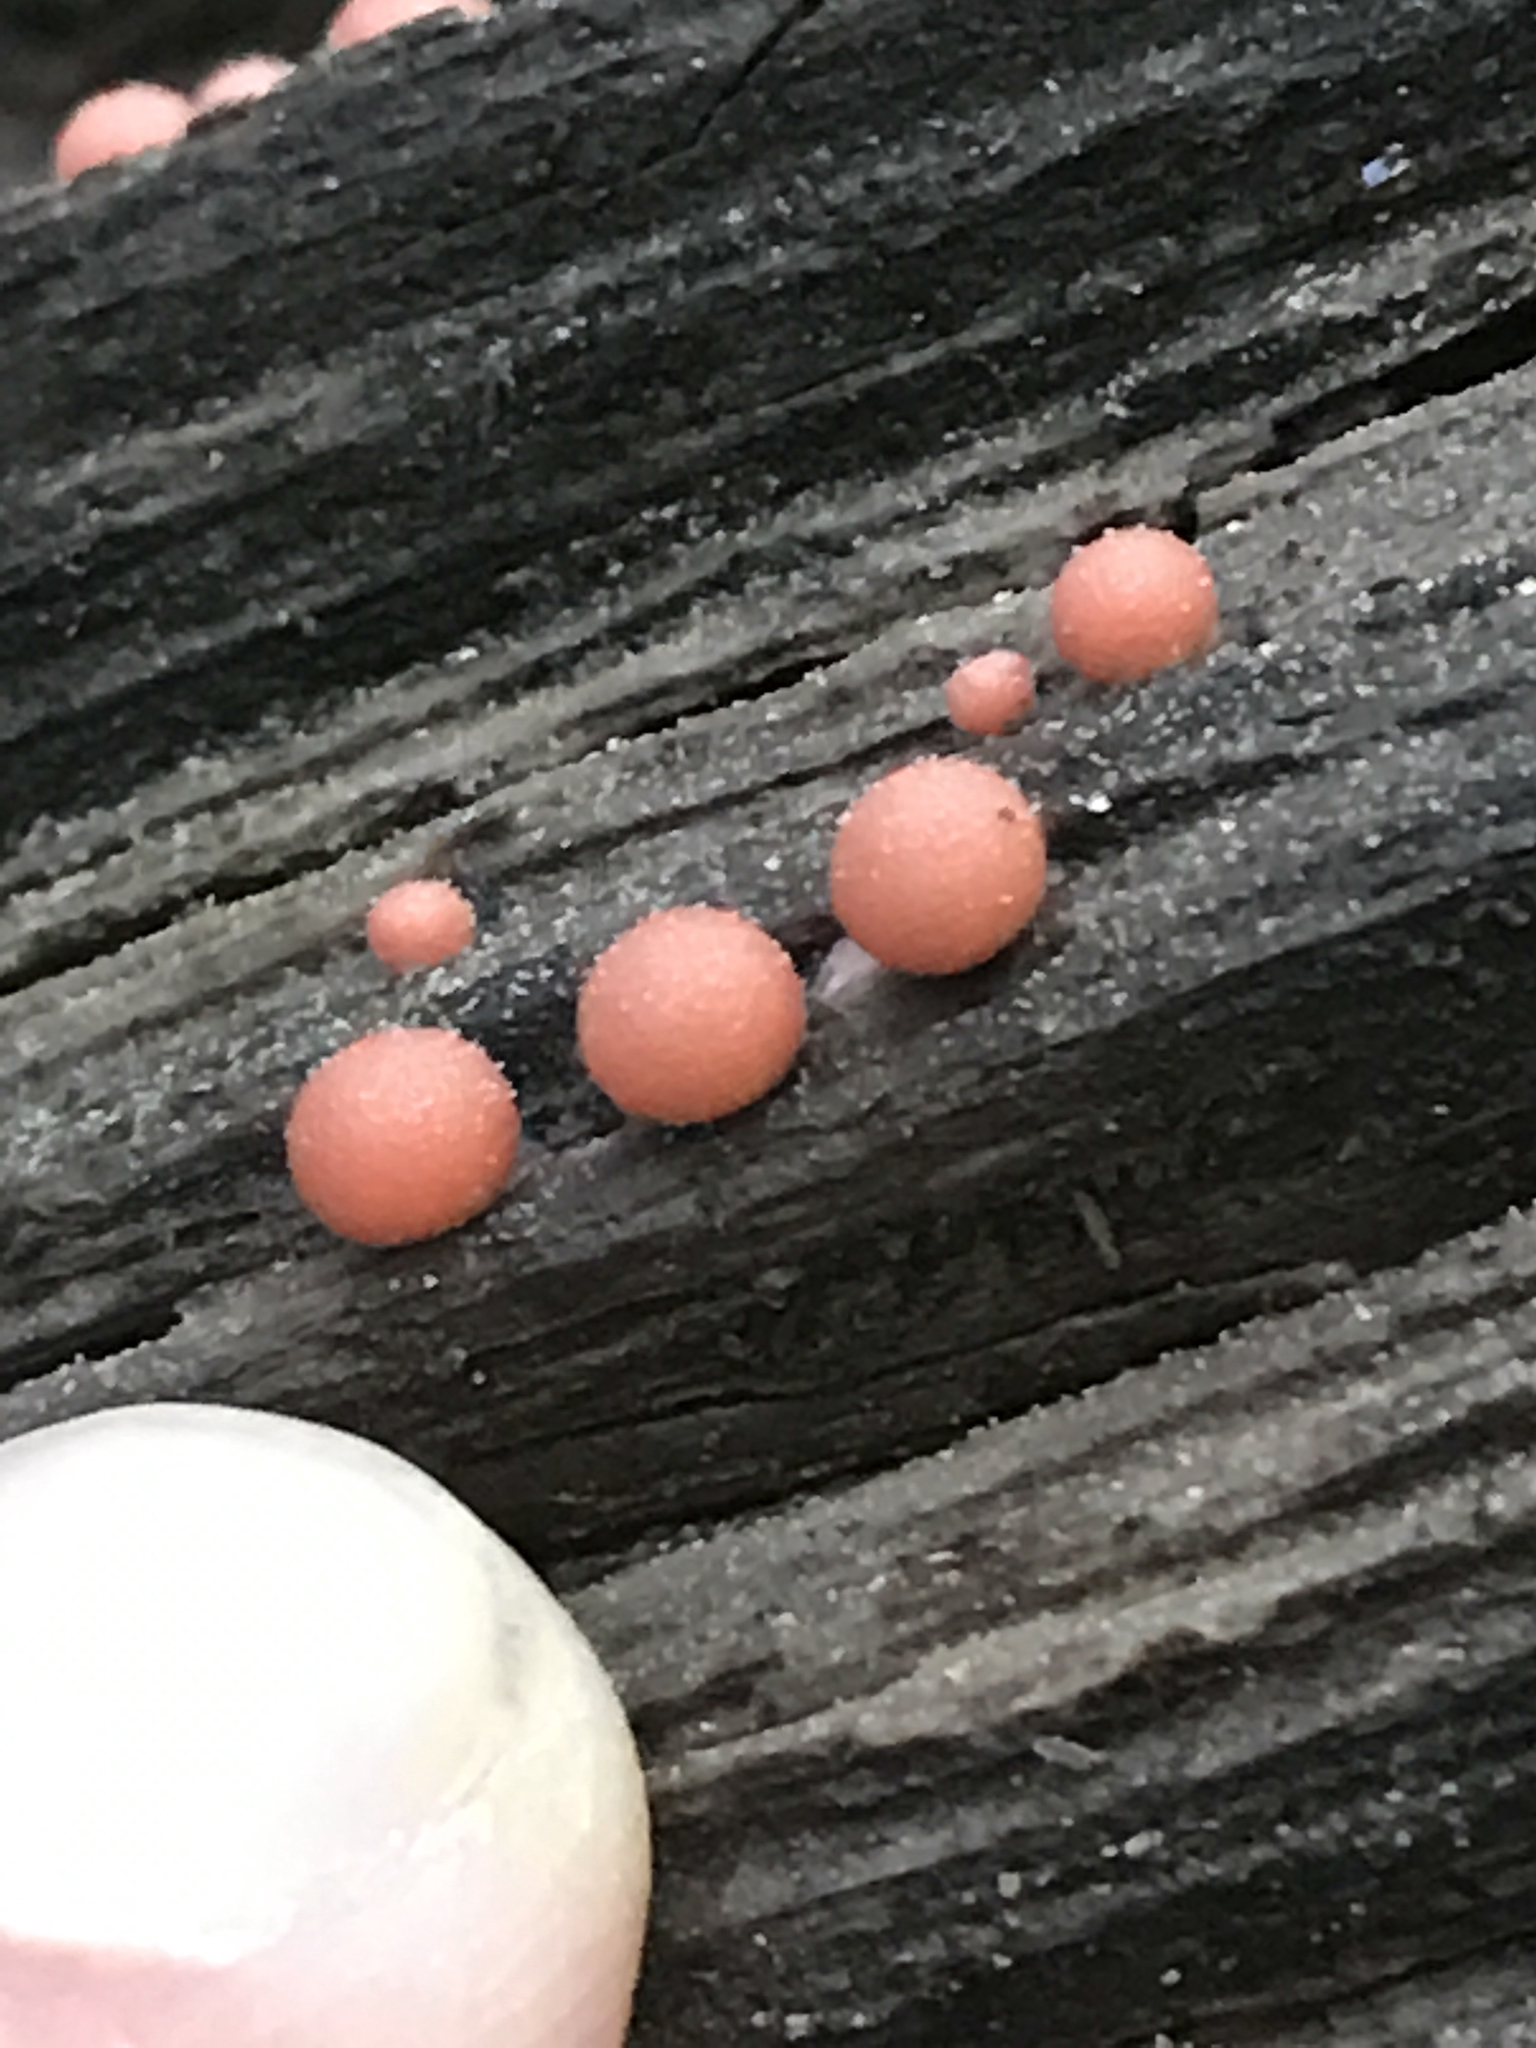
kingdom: Protozoa
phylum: Mycetozoa
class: Myxomycetes
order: Cribrariales
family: Tubiferaceae
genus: Lycogala
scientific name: Lycogala epidendrum
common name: Wolf's milk
